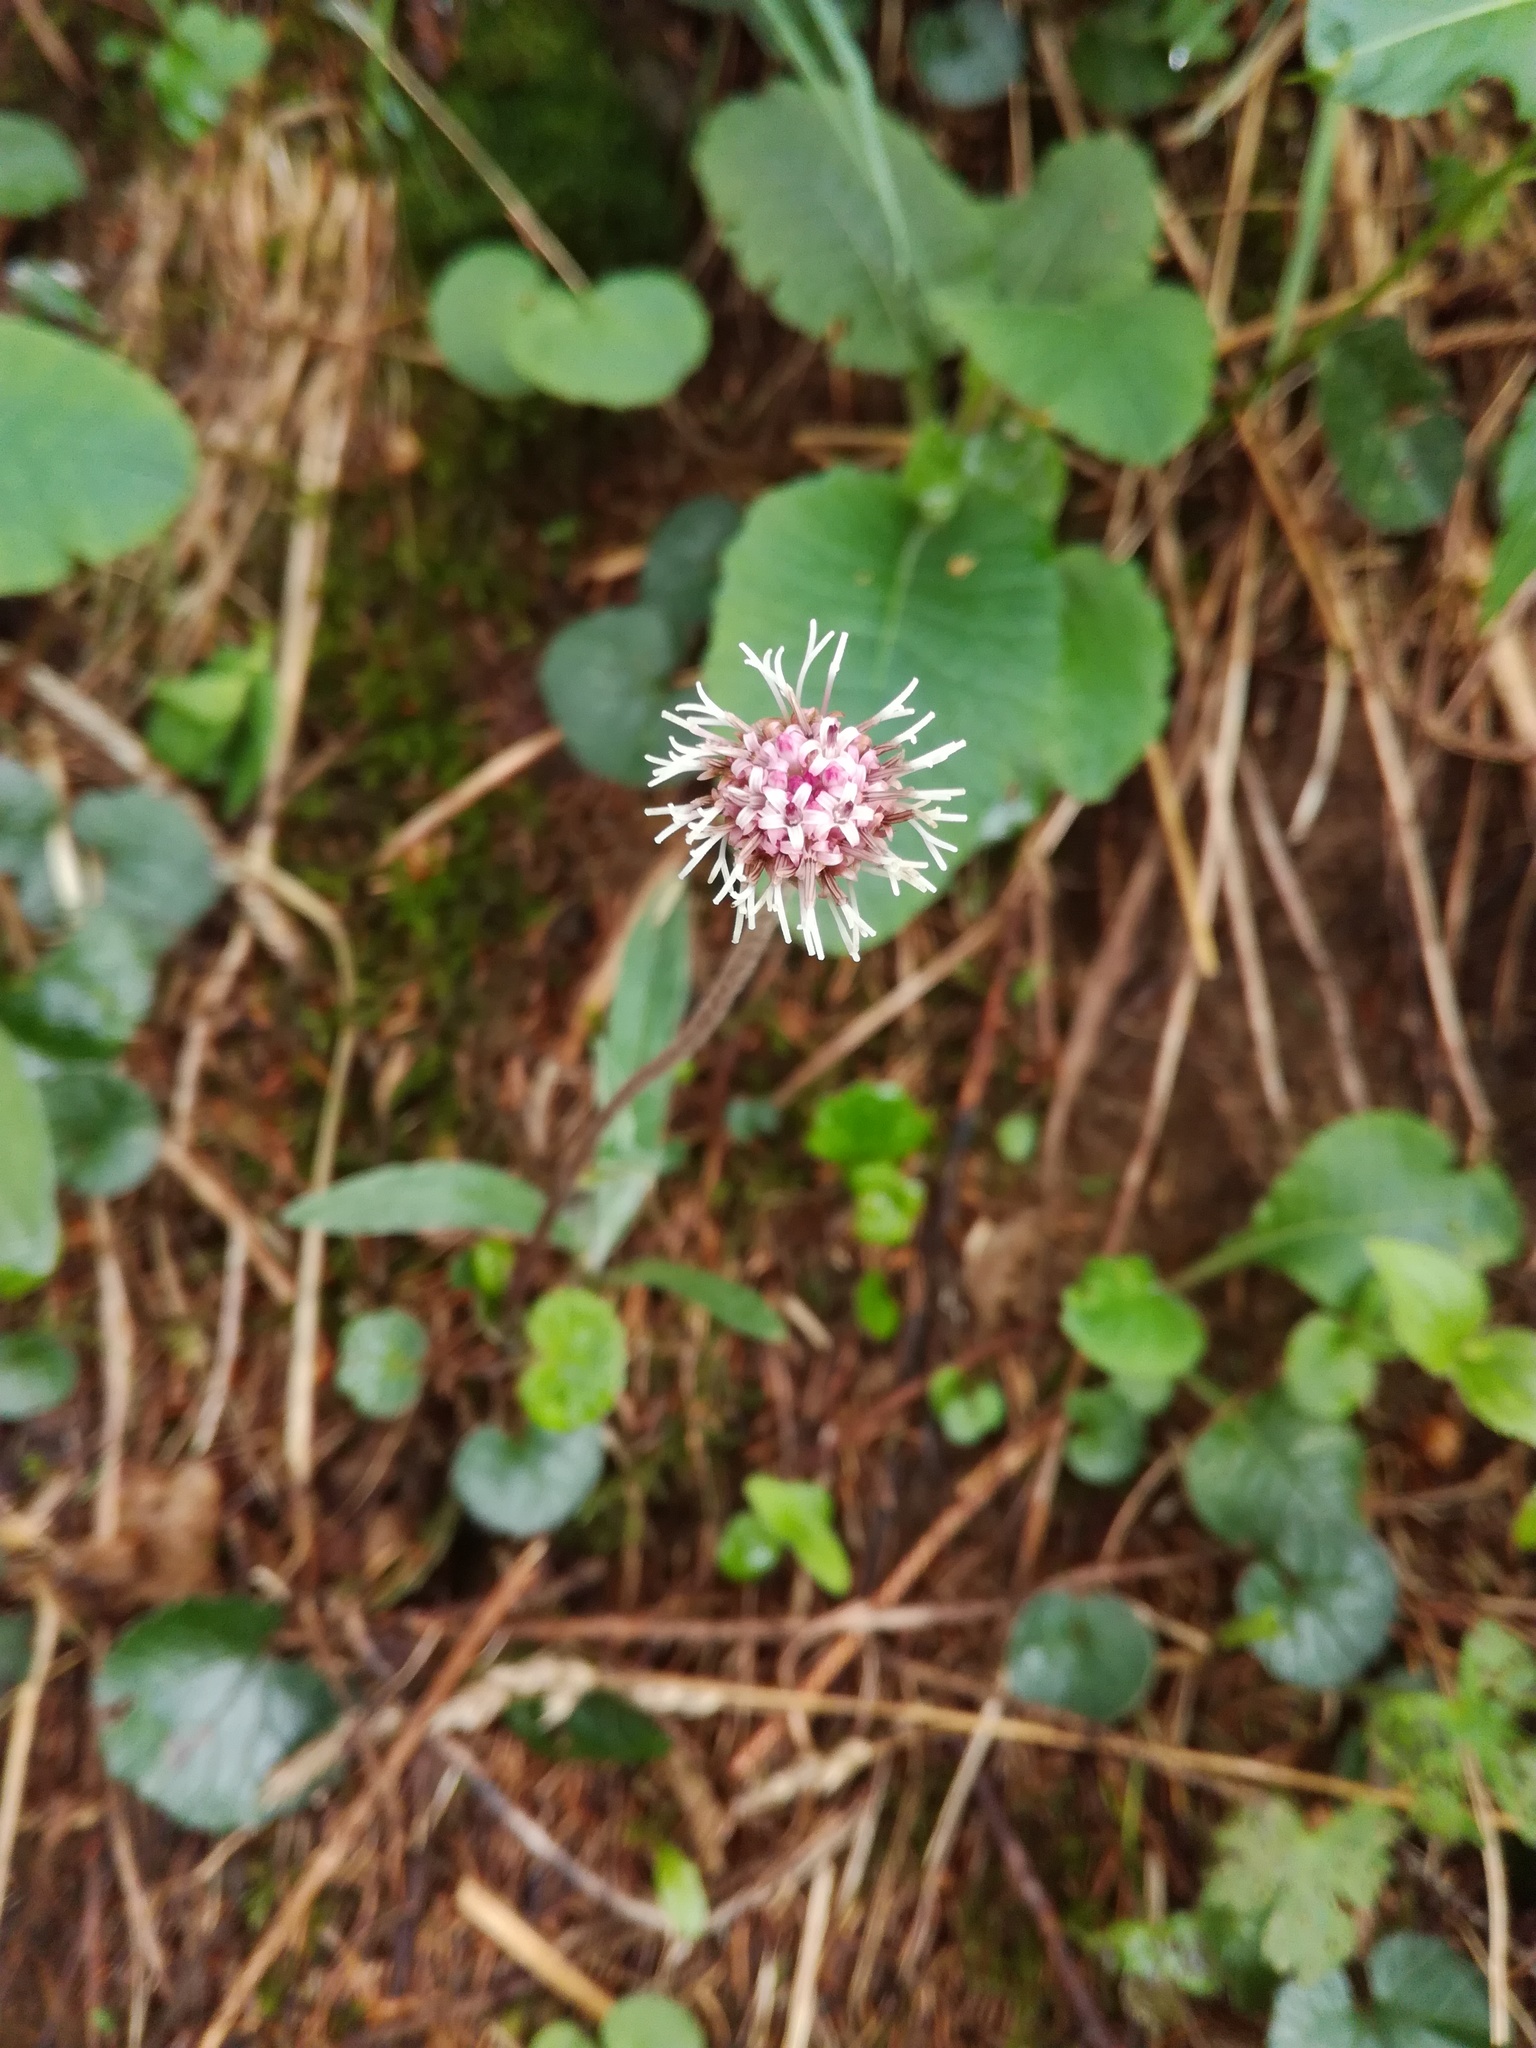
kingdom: Plantae
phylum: Tracheophyta
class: Magnoliopsida
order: Asterales
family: Asteraceae
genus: Homogyne
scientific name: Homogyne alpina
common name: Purple colt's-foot
